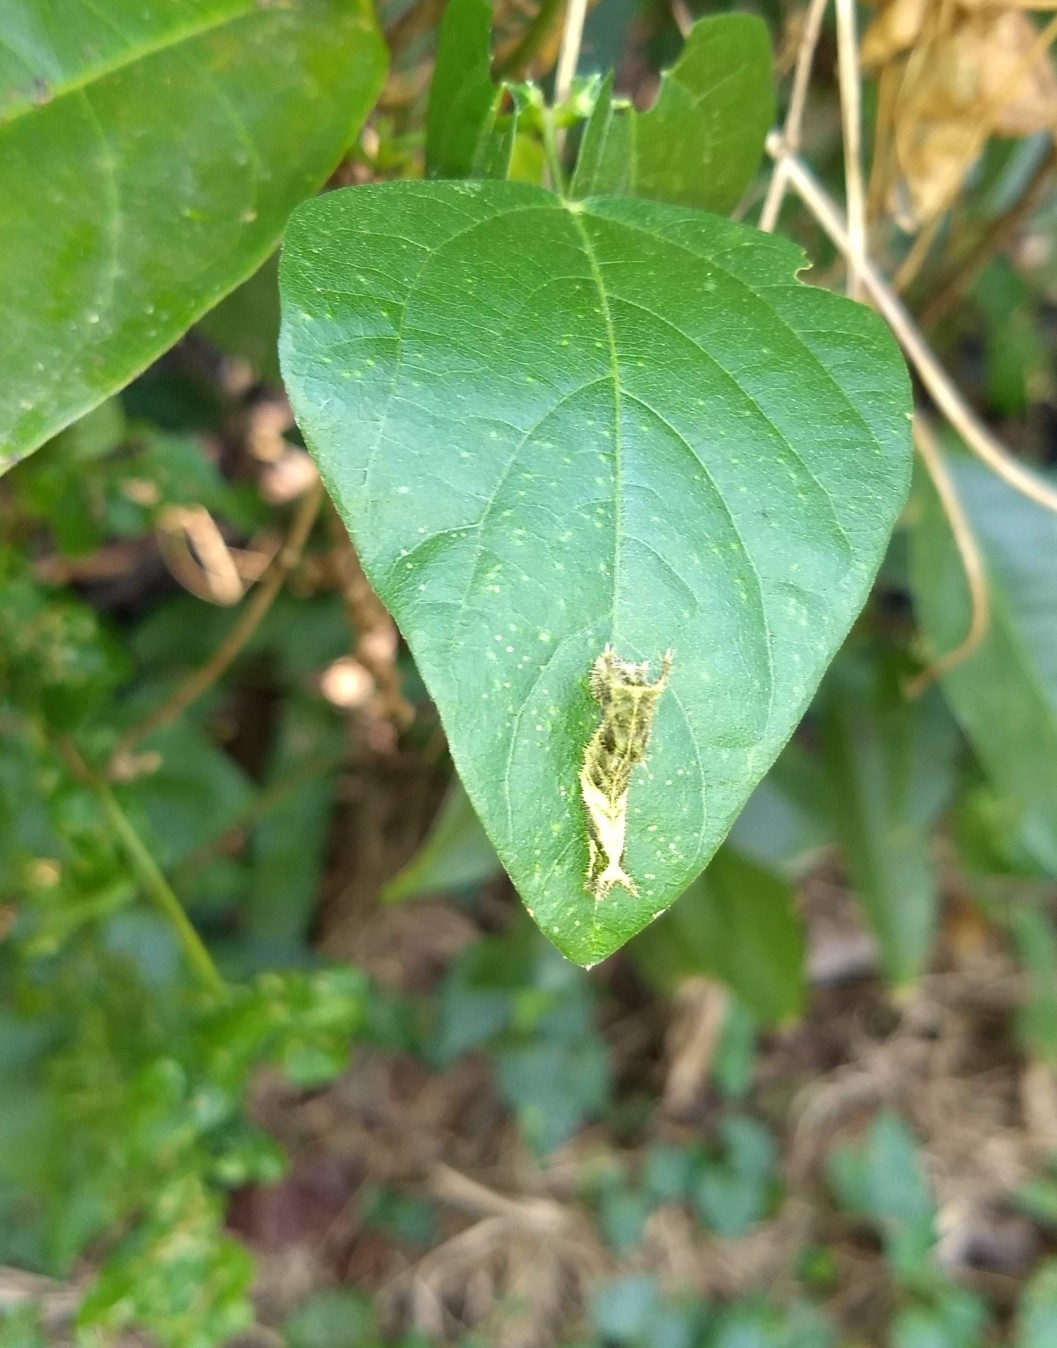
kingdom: Animalia
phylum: Arthropoda
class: Insecta
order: Lepidoptera
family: Nymphalidae
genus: Neptis
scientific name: Neptis hylas
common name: Common sailer
